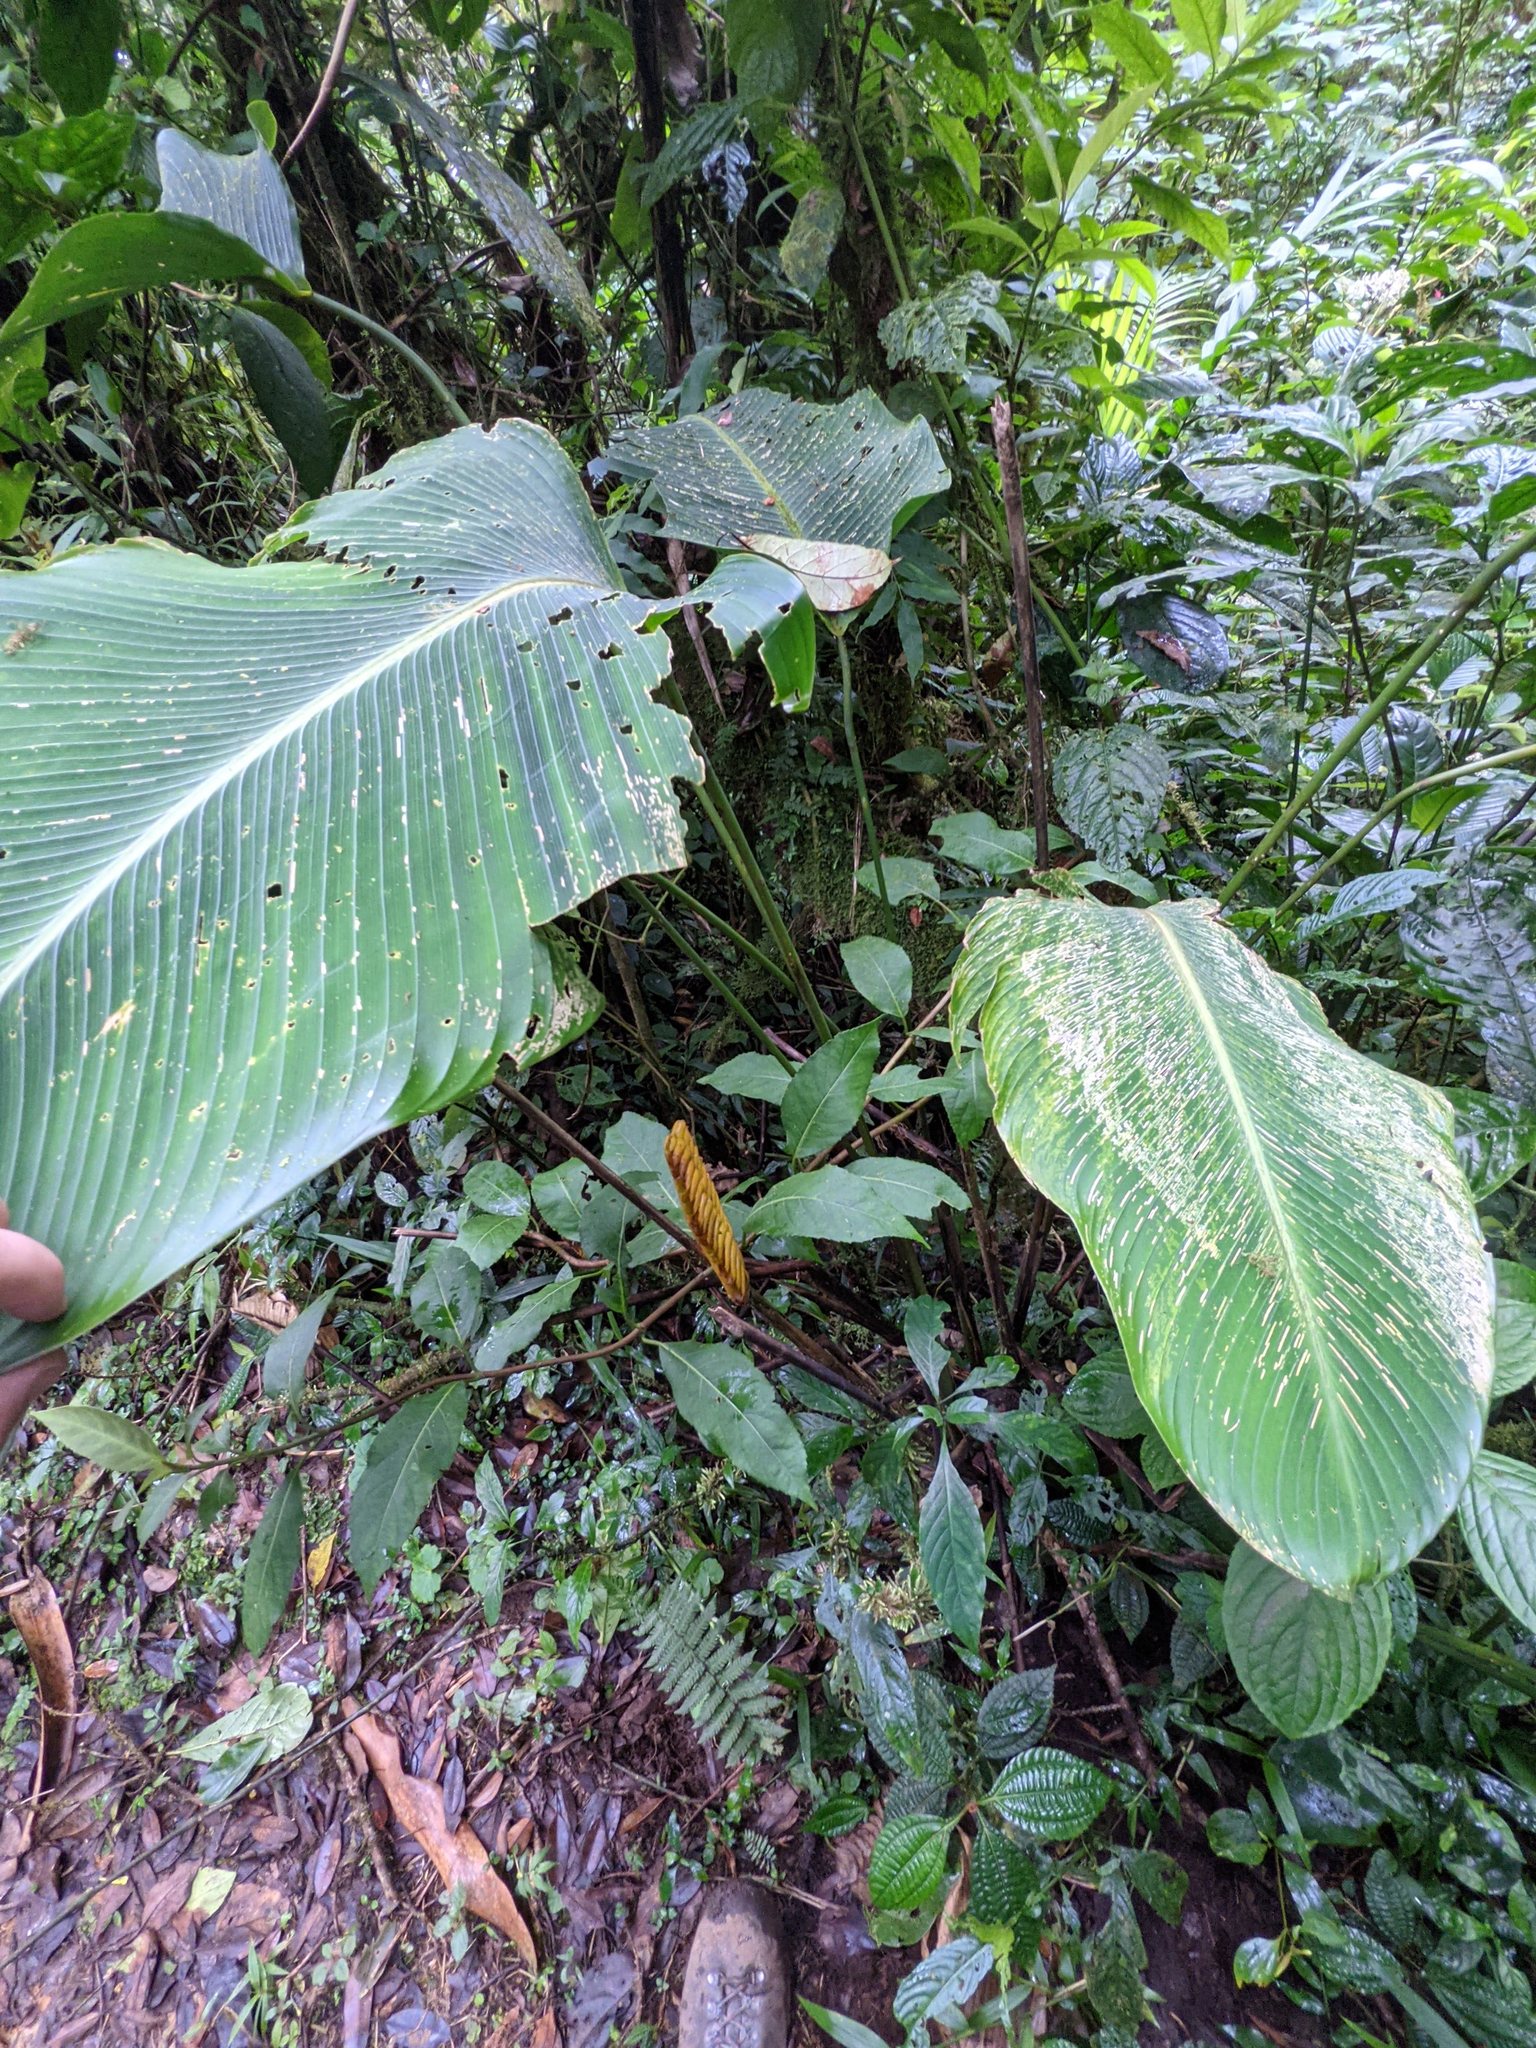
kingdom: Plantae
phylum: Tracheophyta
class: Liliopsida
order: Zingiberales
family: Marantaceae
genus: Calathea
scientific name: Calathea crotalifera
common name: Rattlesnake plant
